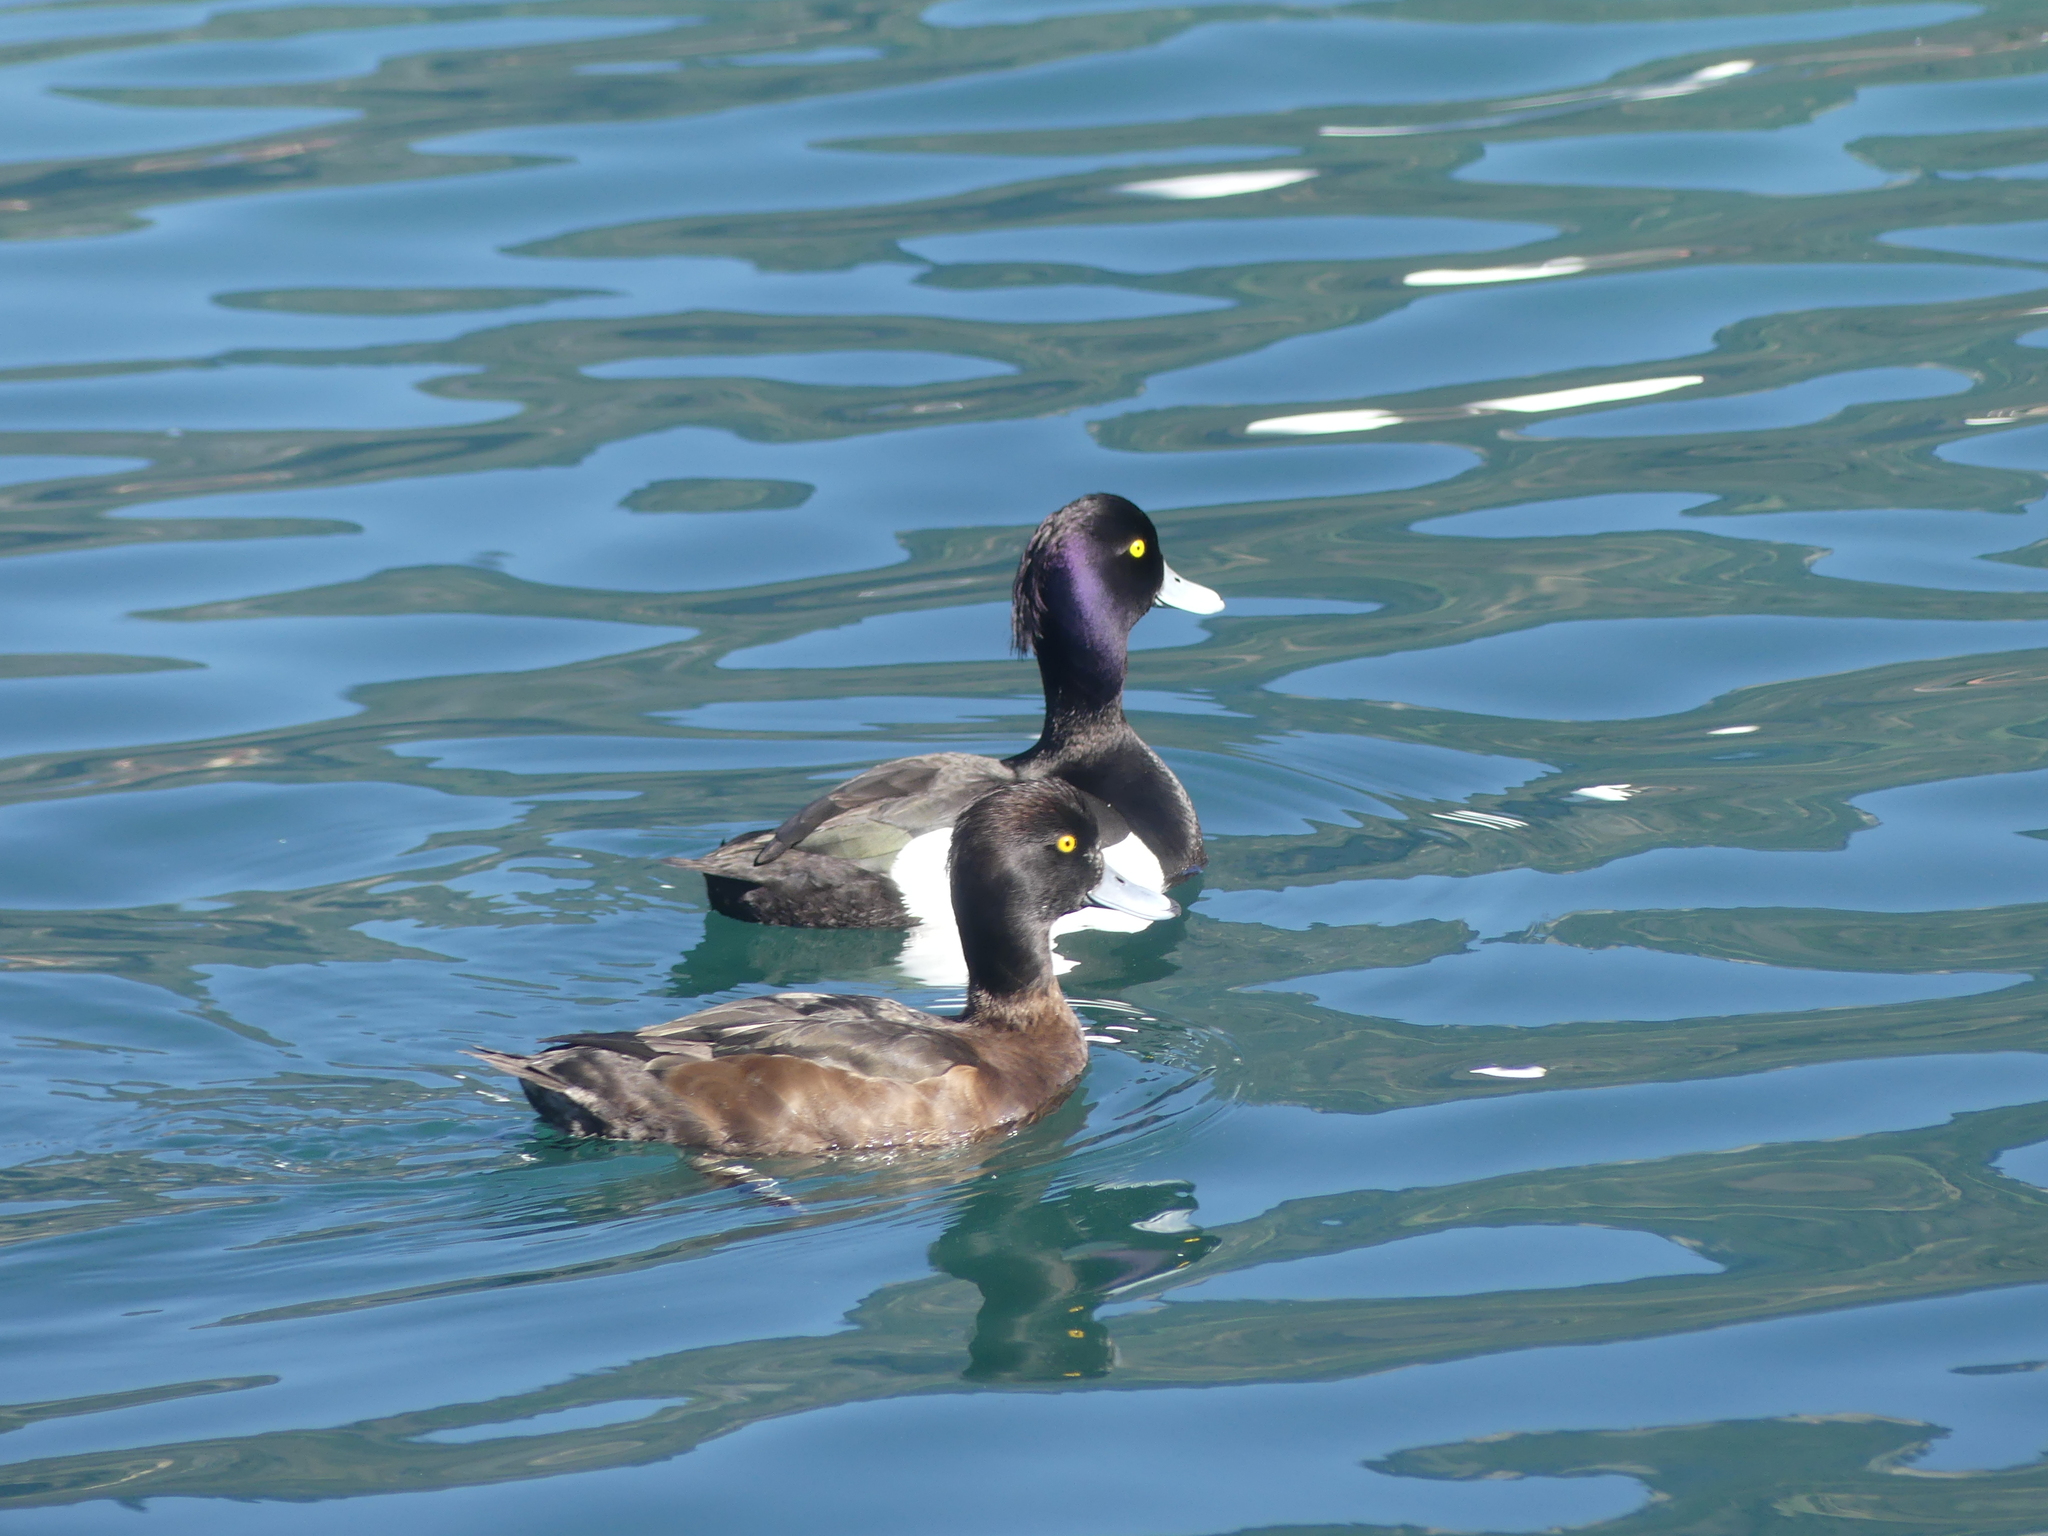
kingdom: Animalia
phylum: Chordata
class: Aves
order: Anseriformes
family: Anatidae
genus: Aythya
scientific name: Aythya fuligula
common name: Tufted duck
